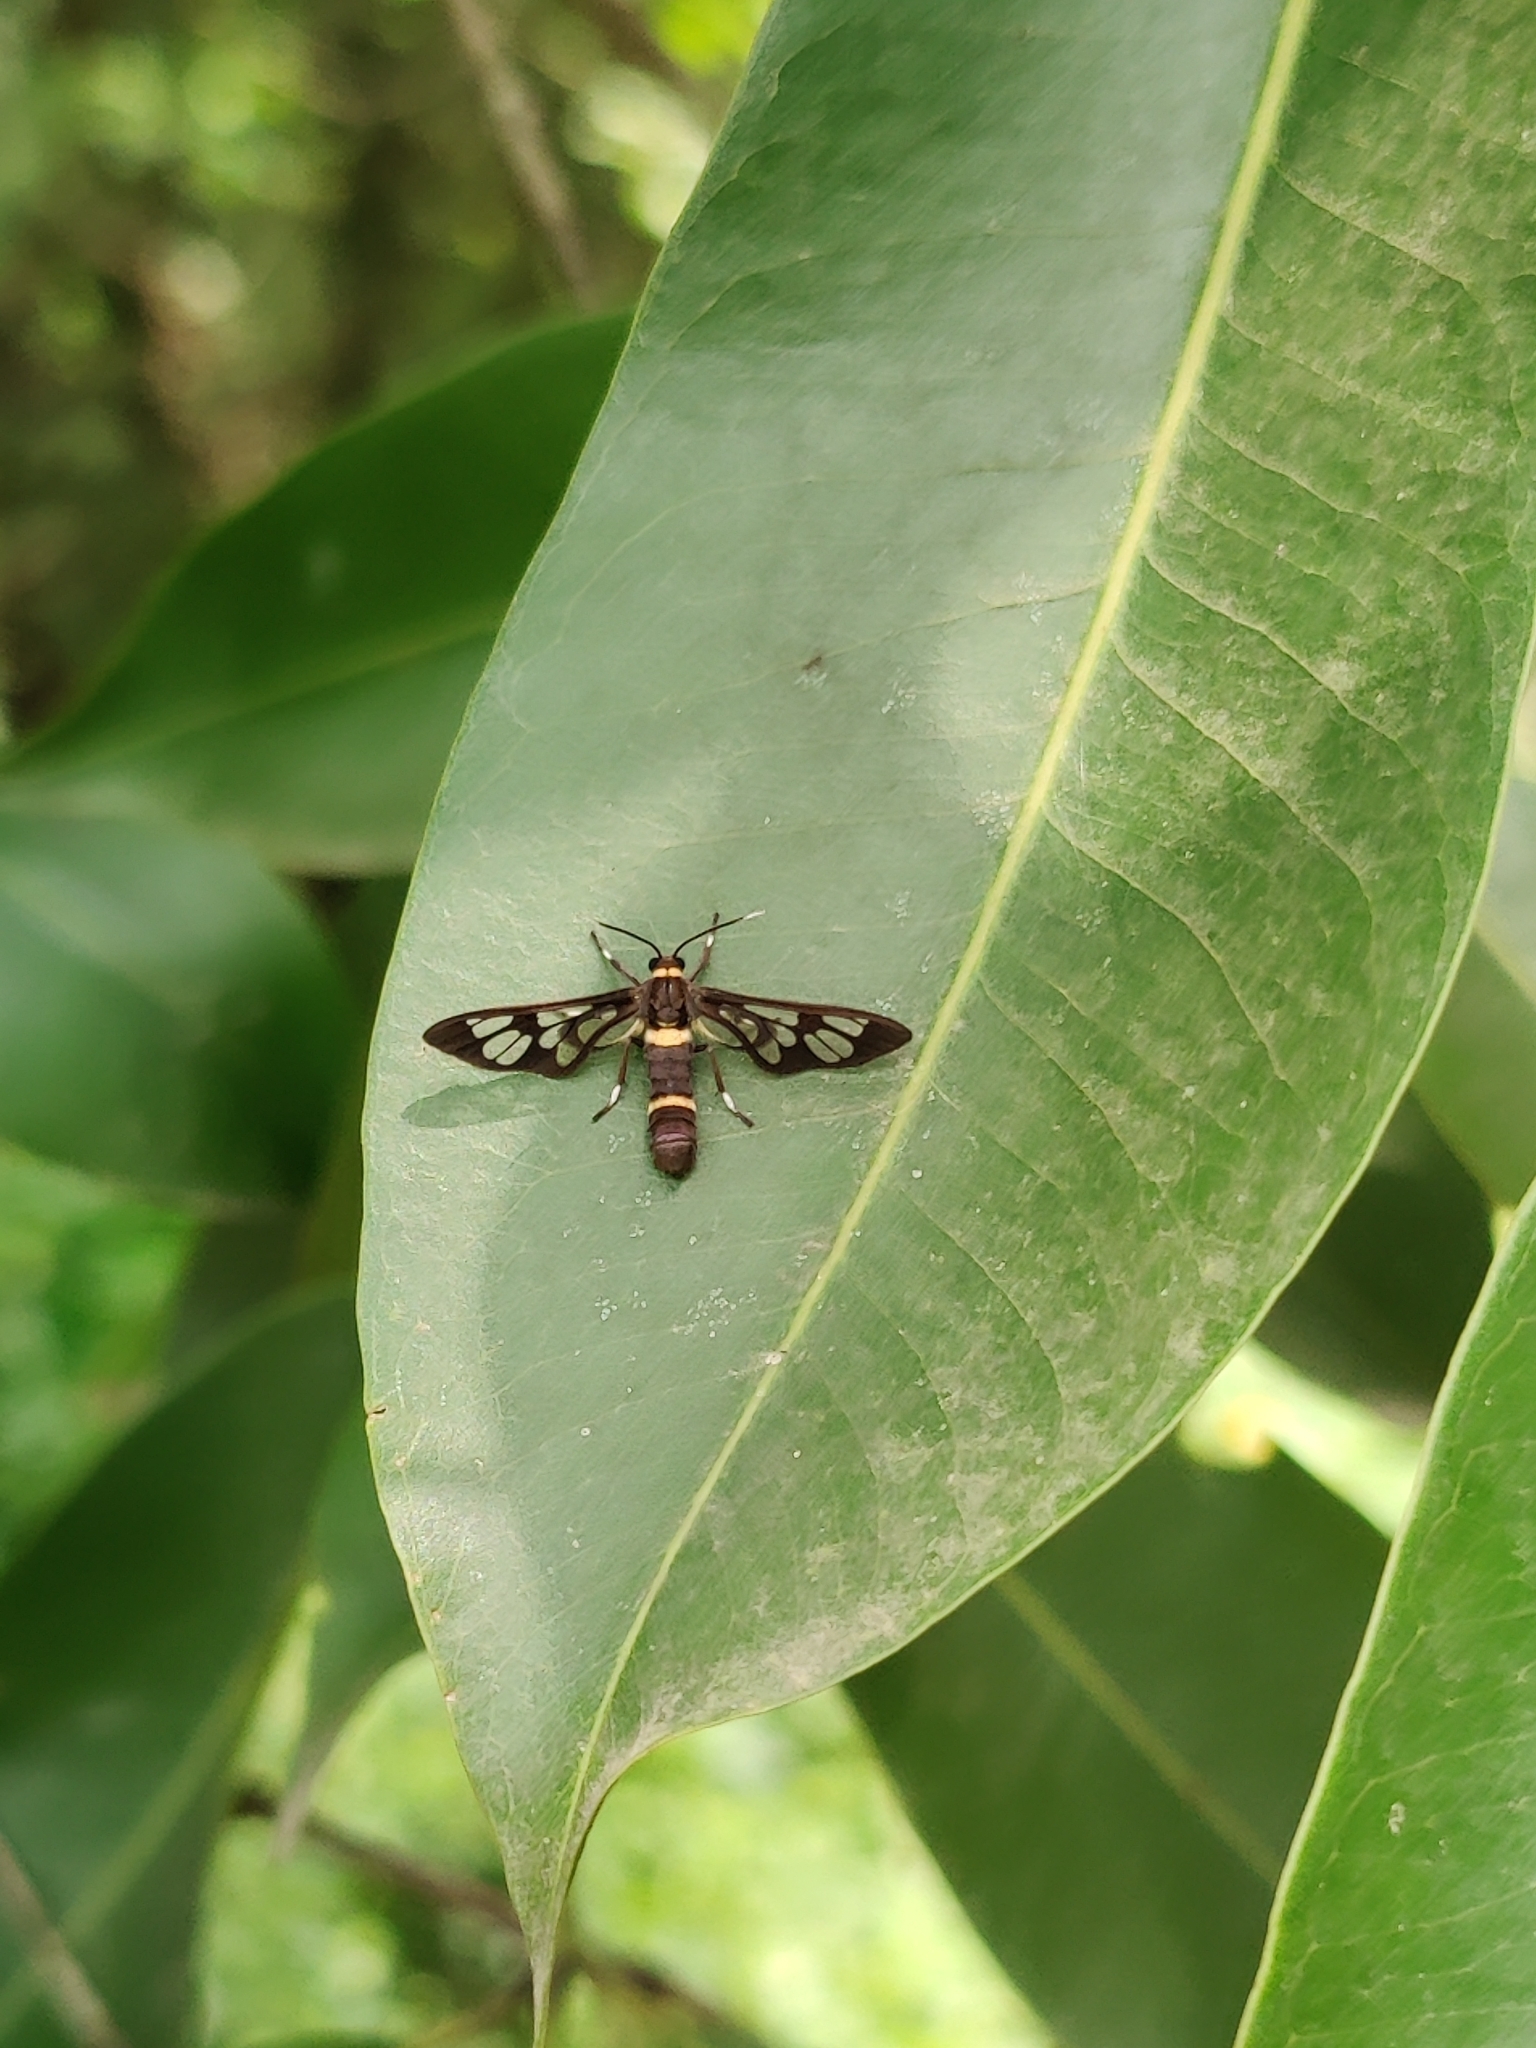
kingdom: Animalia
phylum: Arthropoda
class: Insecta
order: Lepidoptera
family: Erebidae
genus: Syntomoides
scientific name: Syntomoides imaon
